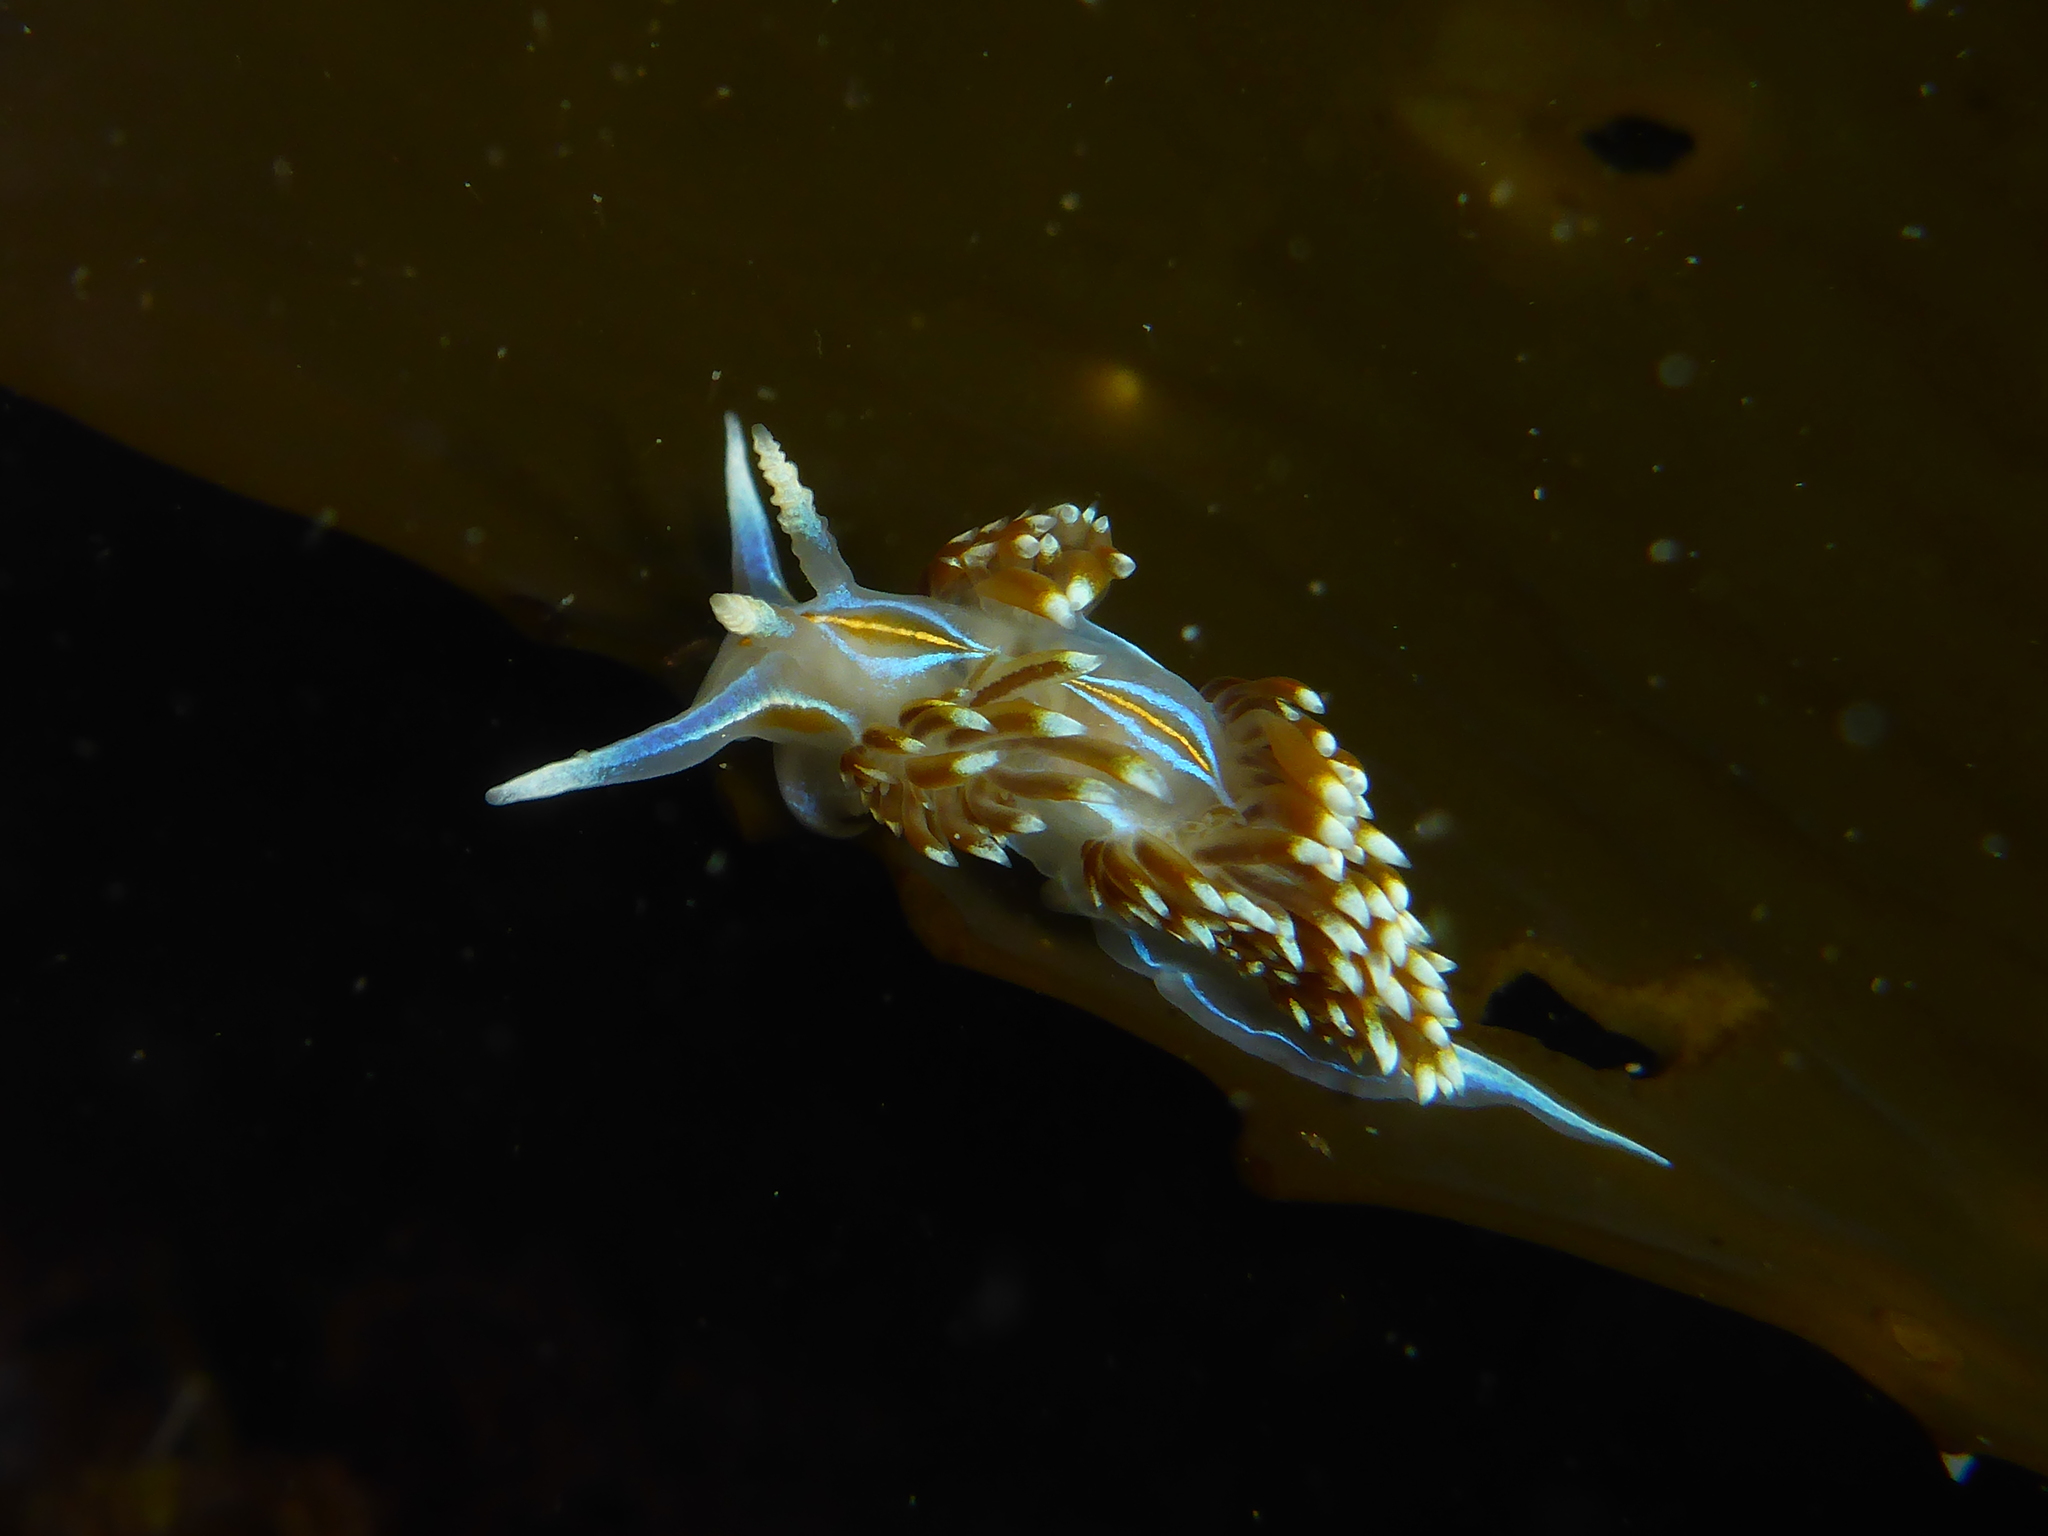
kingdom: Animalia
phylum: Mollusca
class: Gastropoda
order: Nudibranchia
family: Myrrhinidae
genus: Hermissenda
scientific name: Hermissenda opalescens
